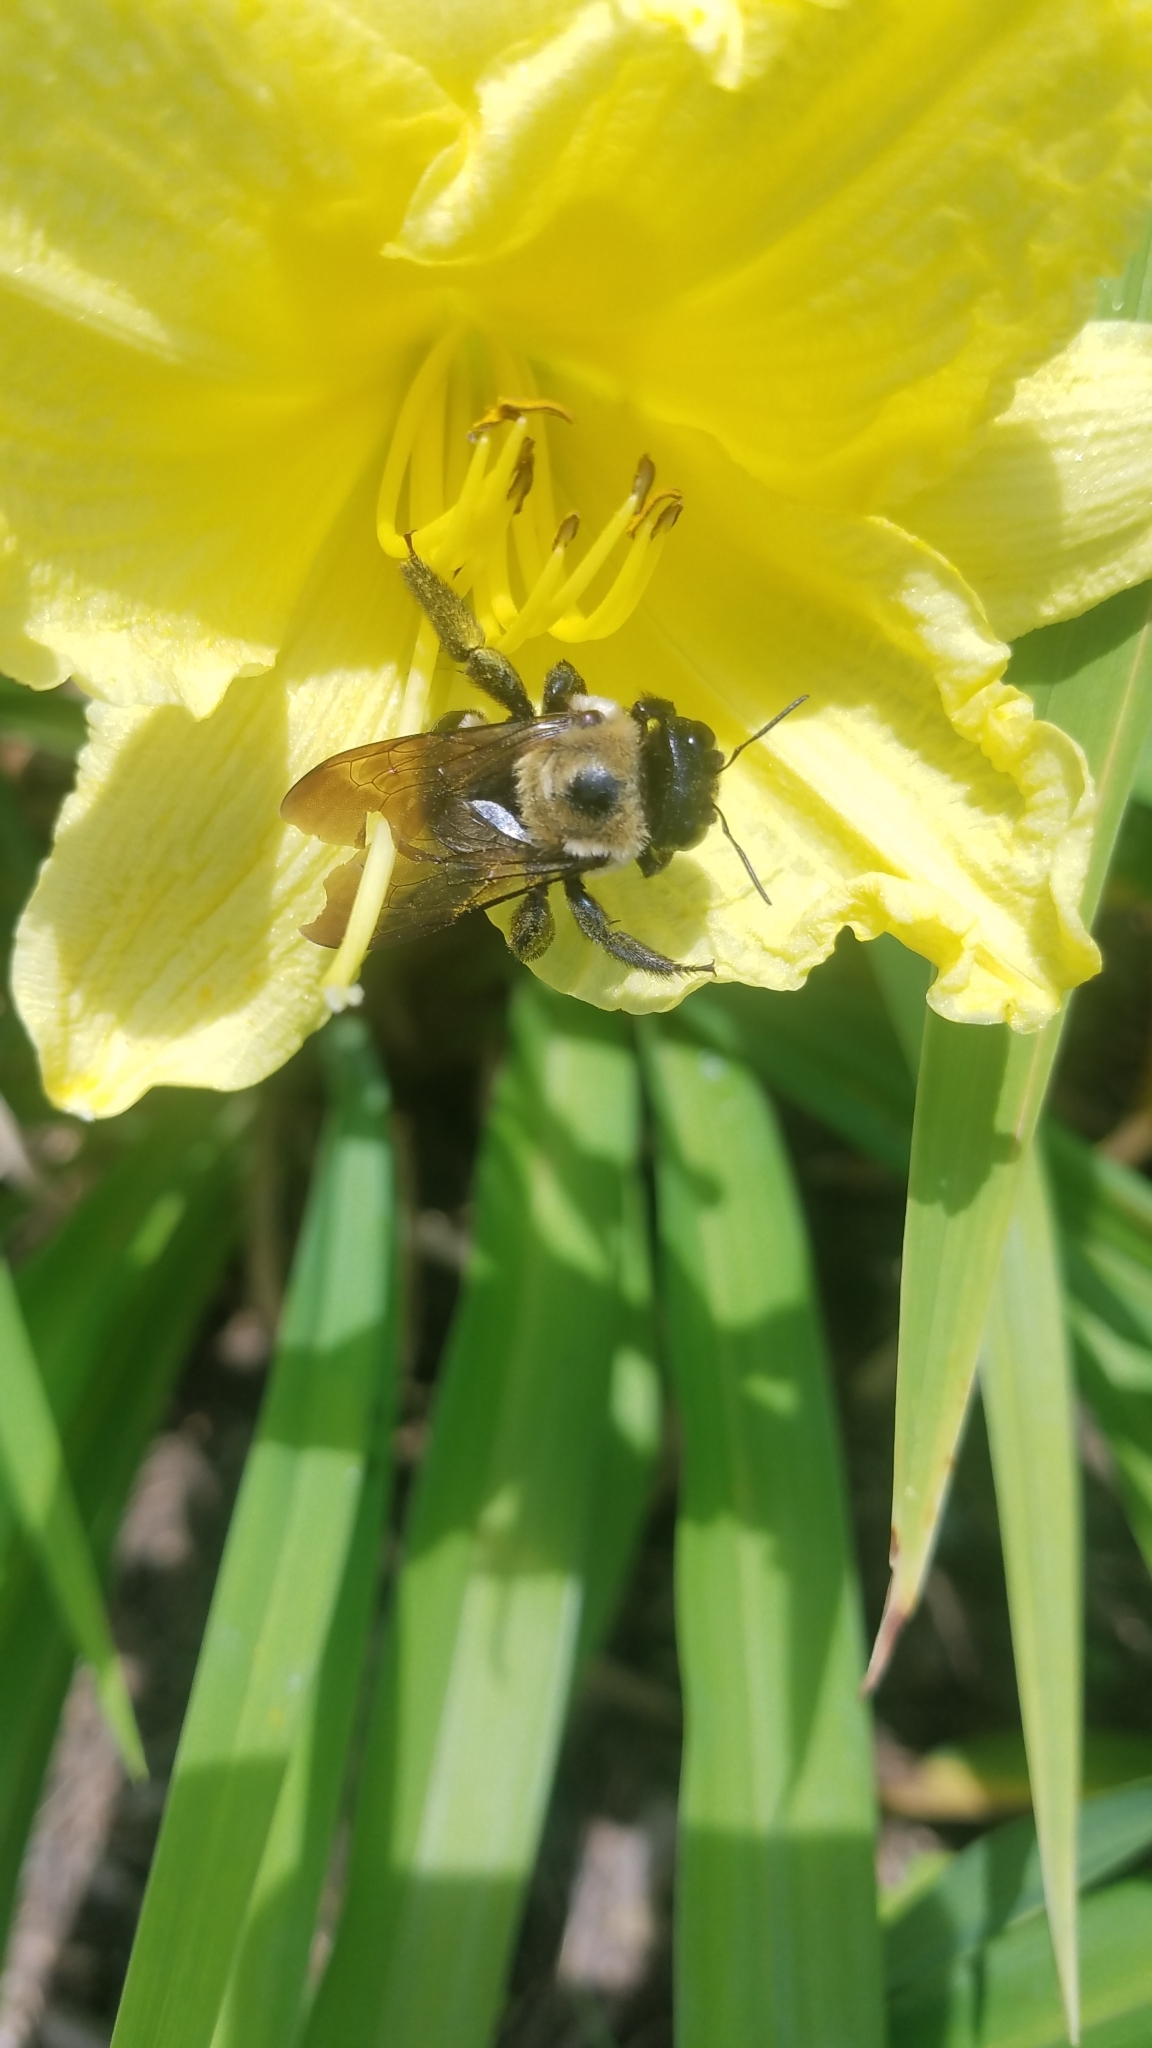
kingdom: Animalia
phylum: Arthropoda
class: Insecta
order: Hymenoptera
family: Apidae
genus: Xylocopa
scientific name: Xylocopa virginica
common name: Carpenter bee
